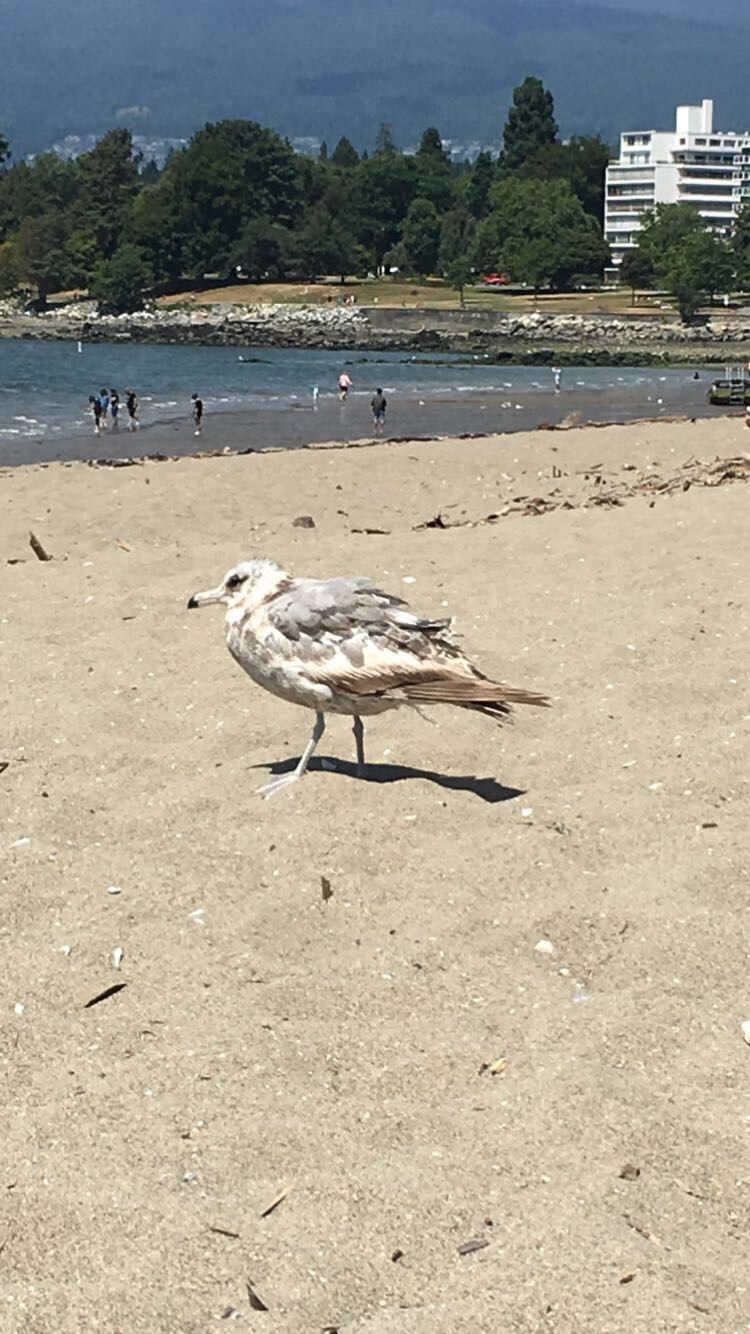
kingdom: Animalia
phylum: Chordata
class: Aves
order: Charadriiformes
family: Laridae
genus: Larus
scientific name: Larus californicus
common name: California gull
